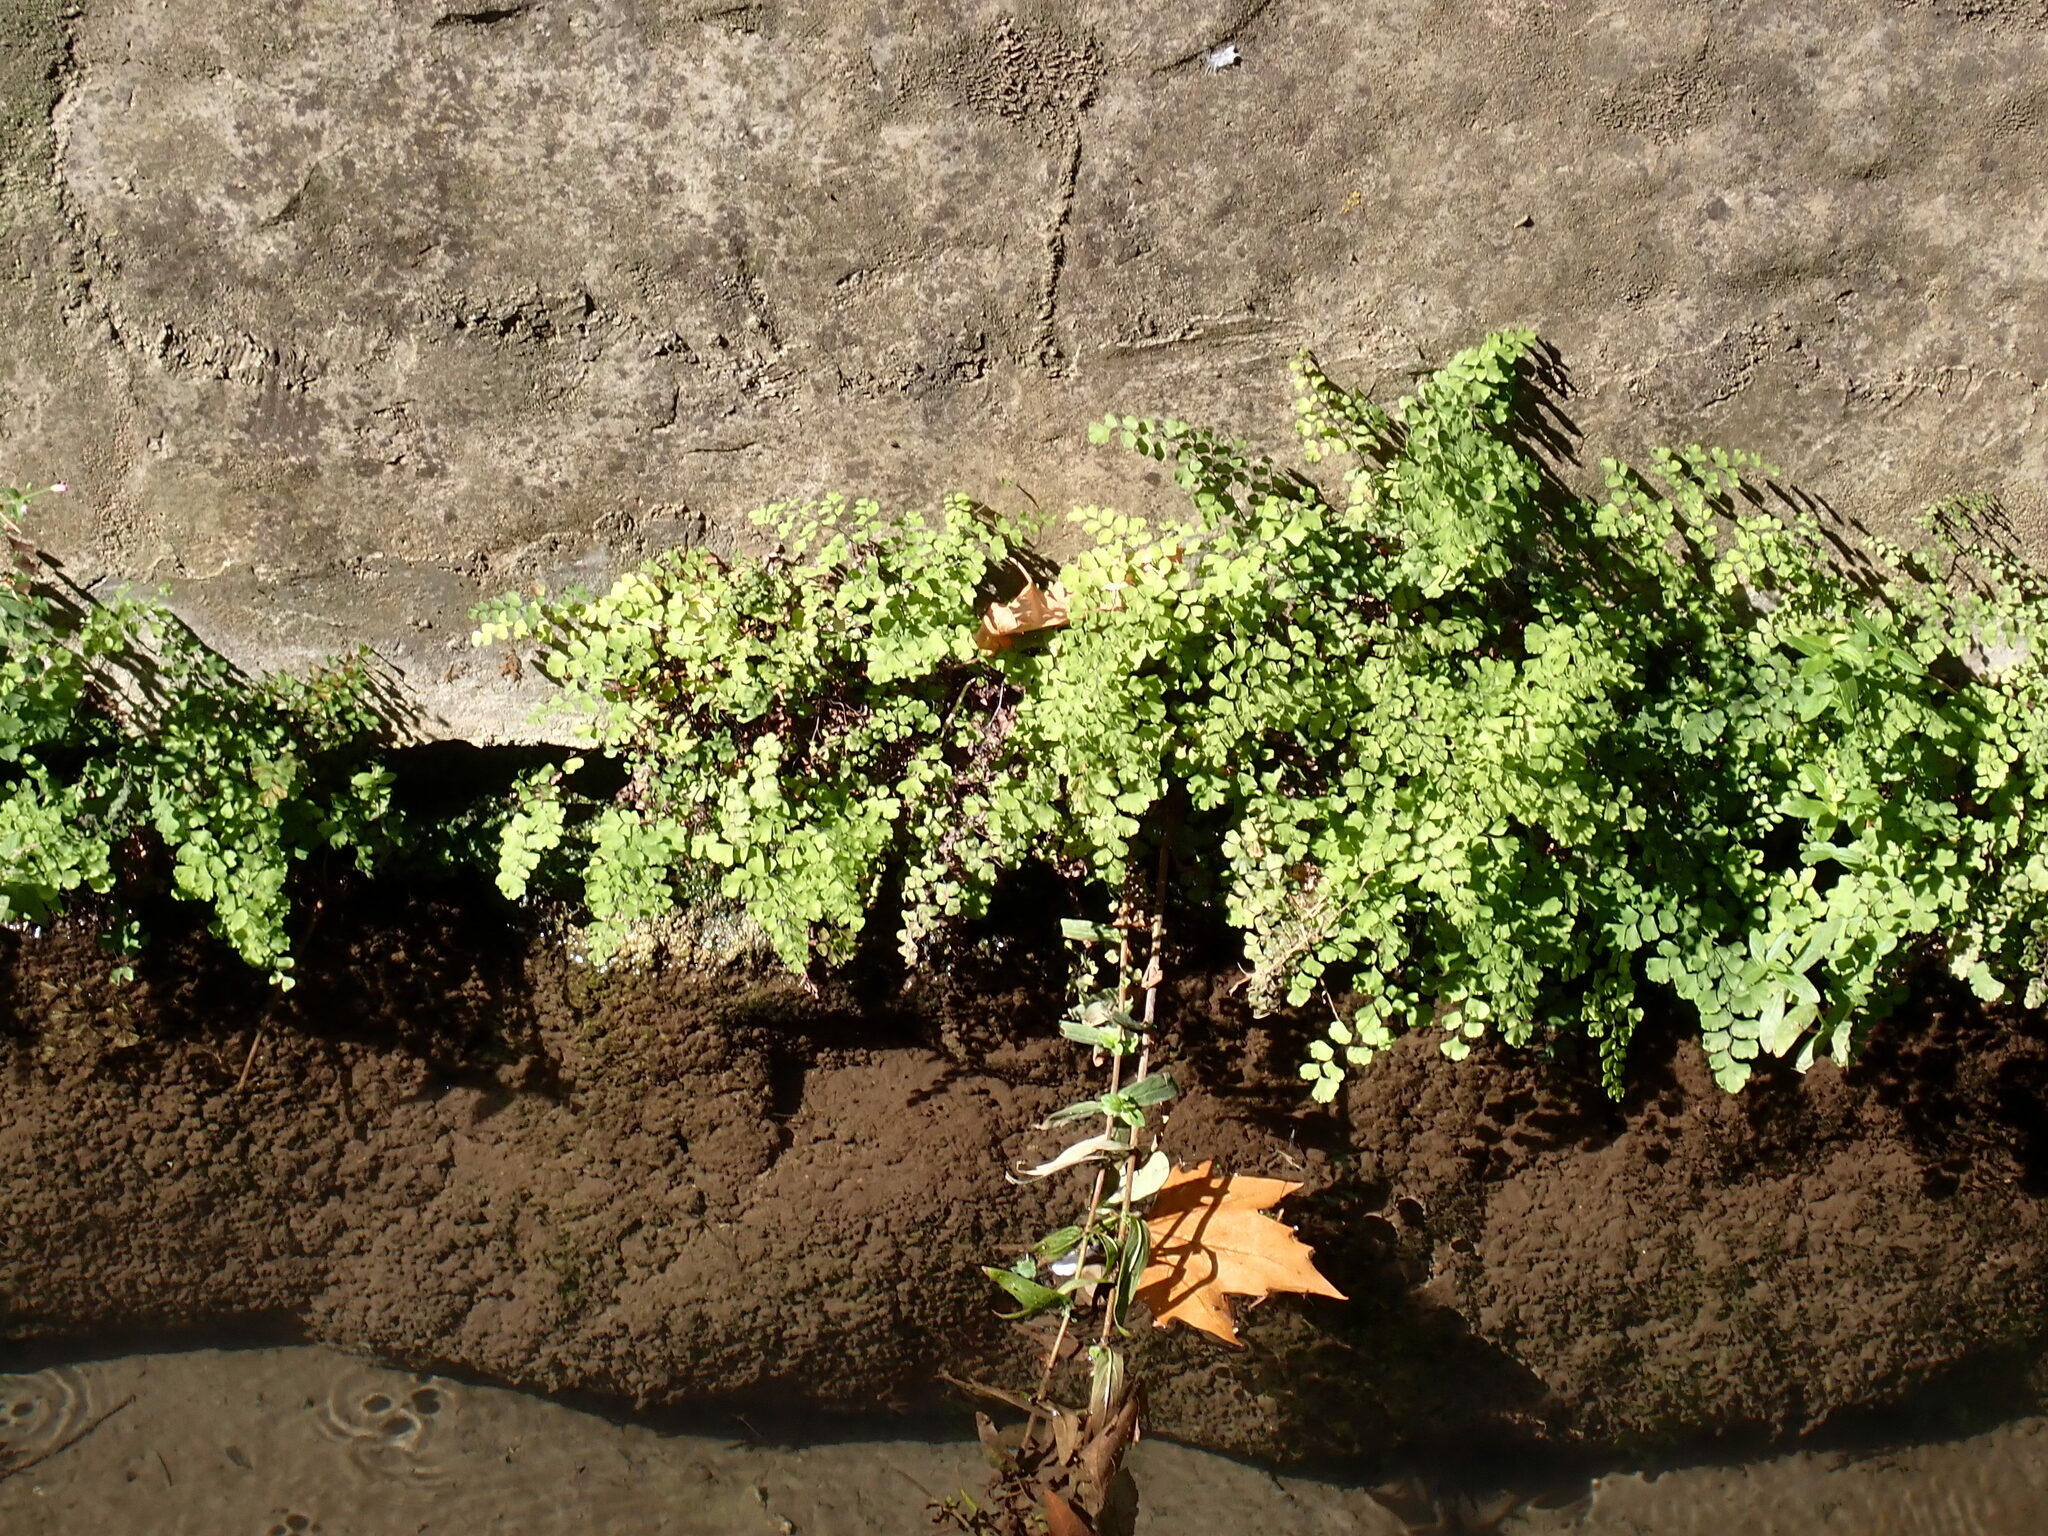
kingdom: Plantae
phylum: Tracheophyta
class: Polypodiopsida
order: Polypodiales
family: Pteridaceae
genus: Adiantum
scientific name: Adiantum capillus-veneris
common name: Maidenhair fern
